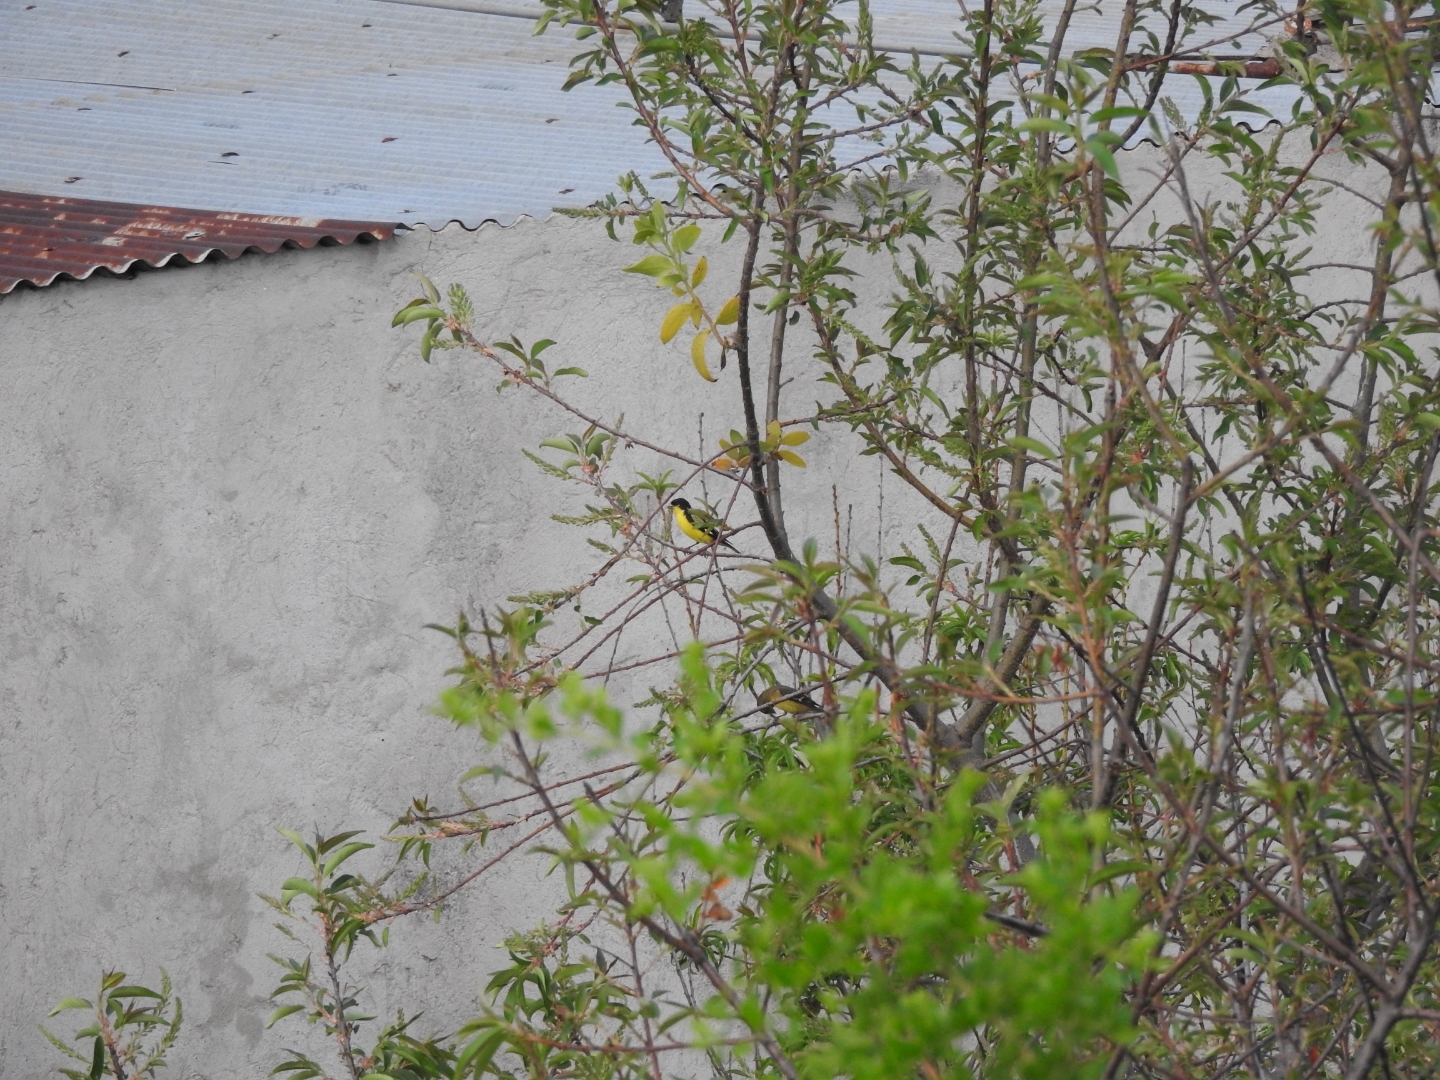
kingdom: Animalia
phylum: Chordata
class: Aves
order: Passeriformes
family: Fringillidae
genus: Spinus
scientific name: Spinus psaltria
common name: Lesser goldfinch
